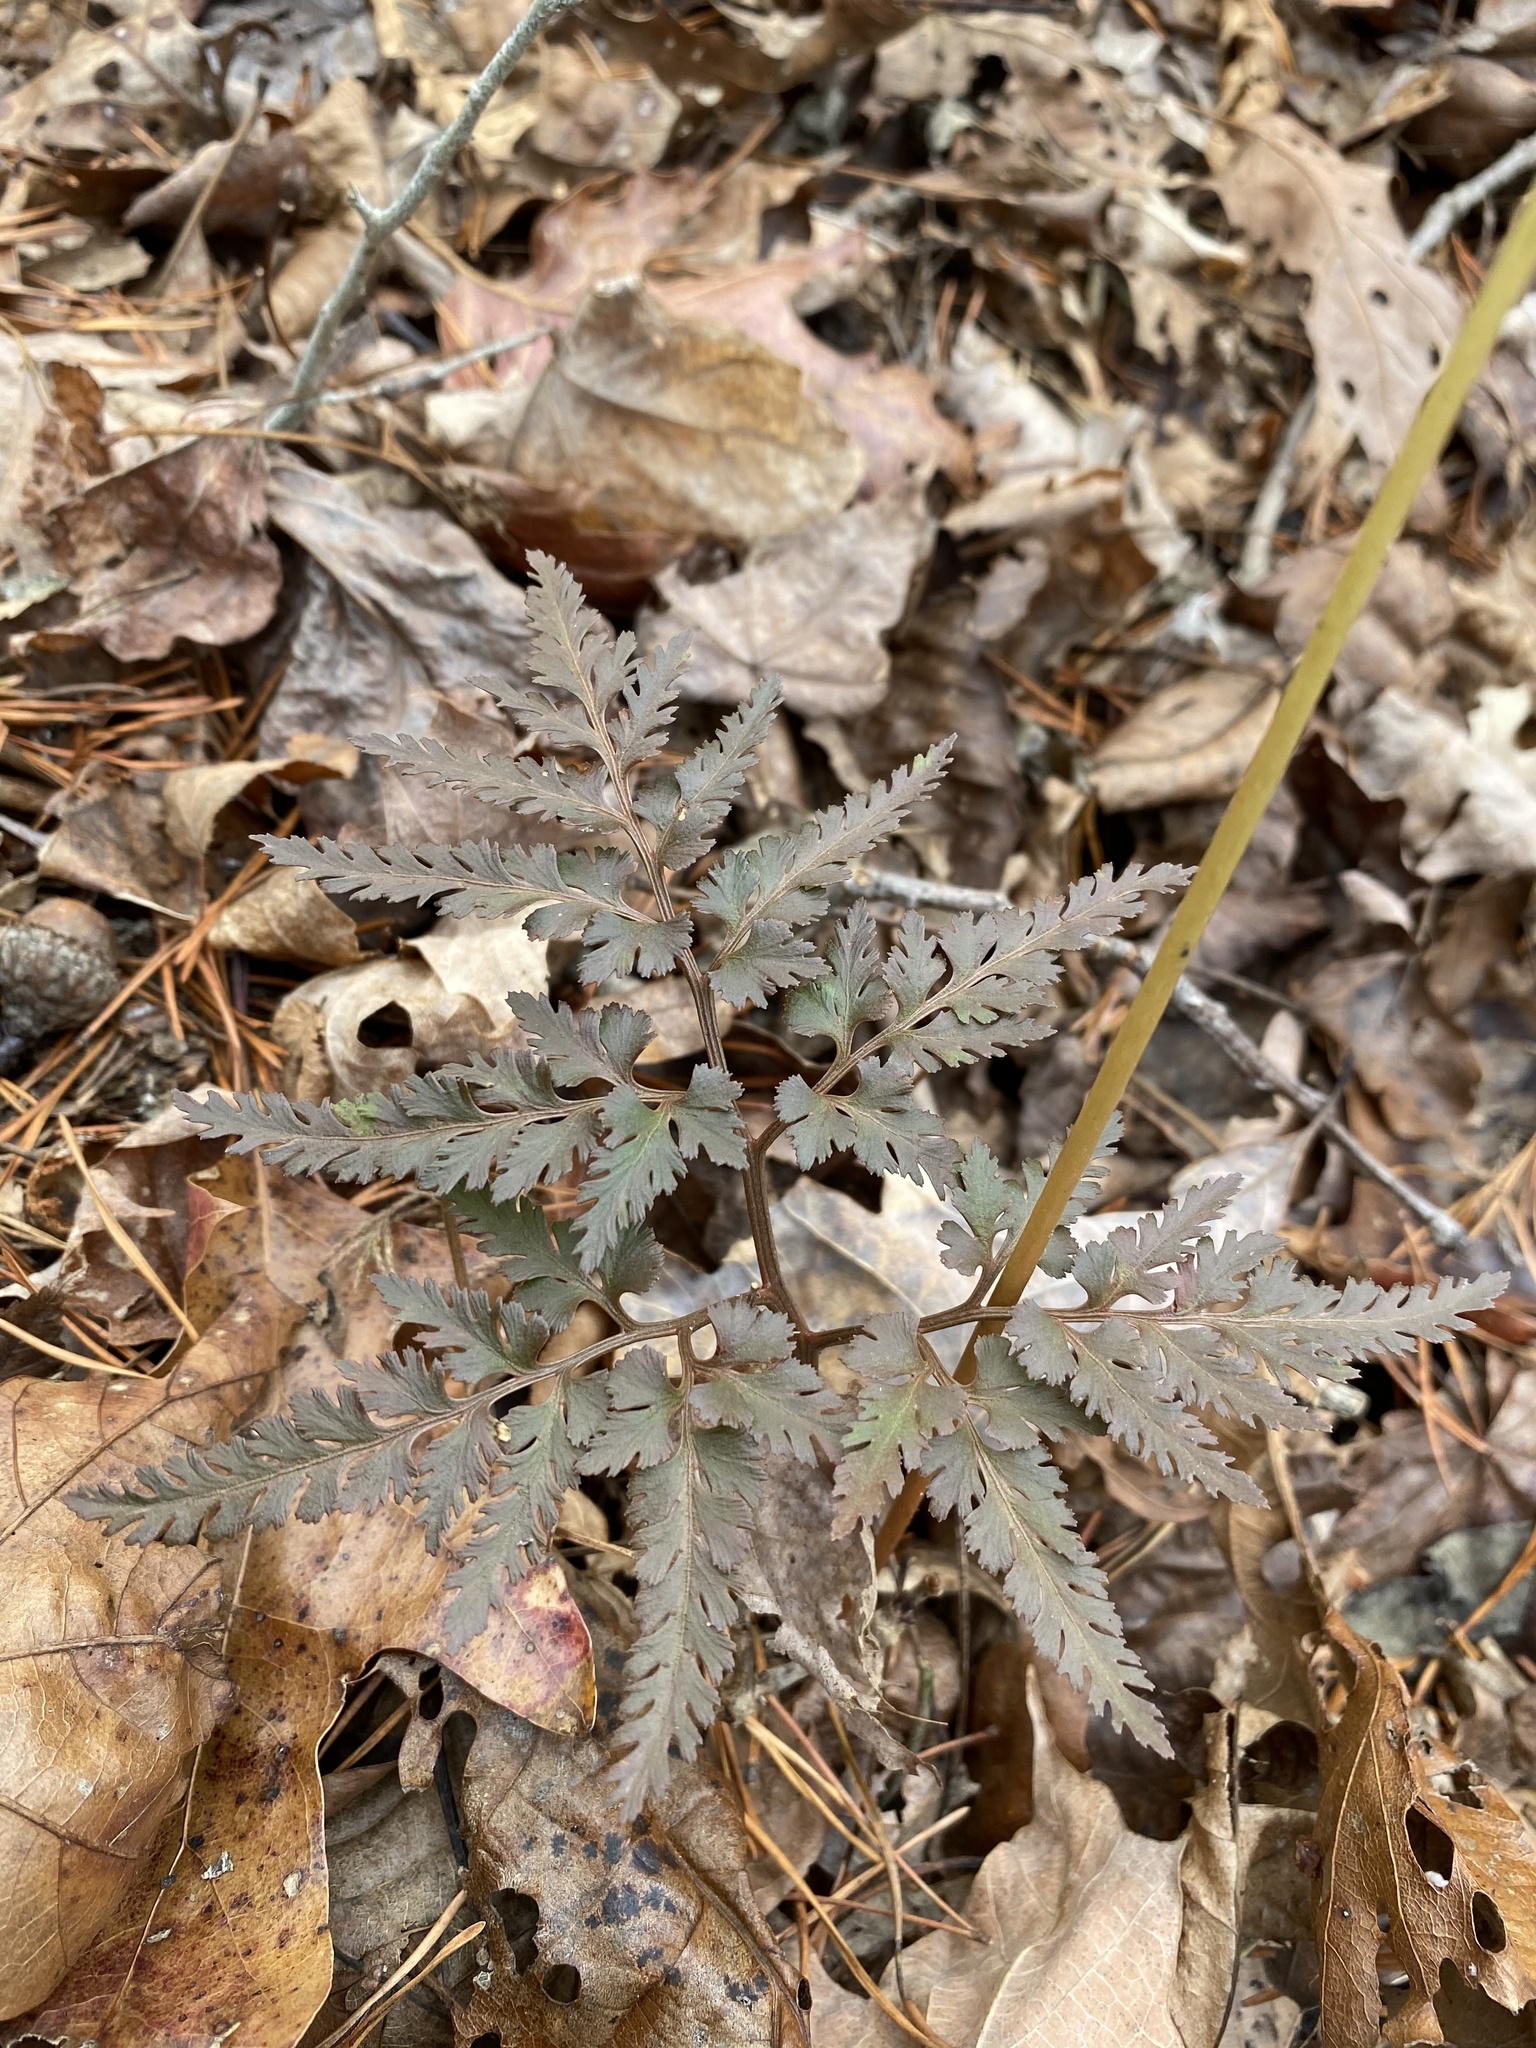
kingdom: Plantae
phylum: Tracheophyta
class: Polypodiopsida
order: Ophioglossales
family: Ophioglossaceae
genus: Sceptridium
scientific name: Sceptridium dissectum
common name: Cut-leaved grapefern
